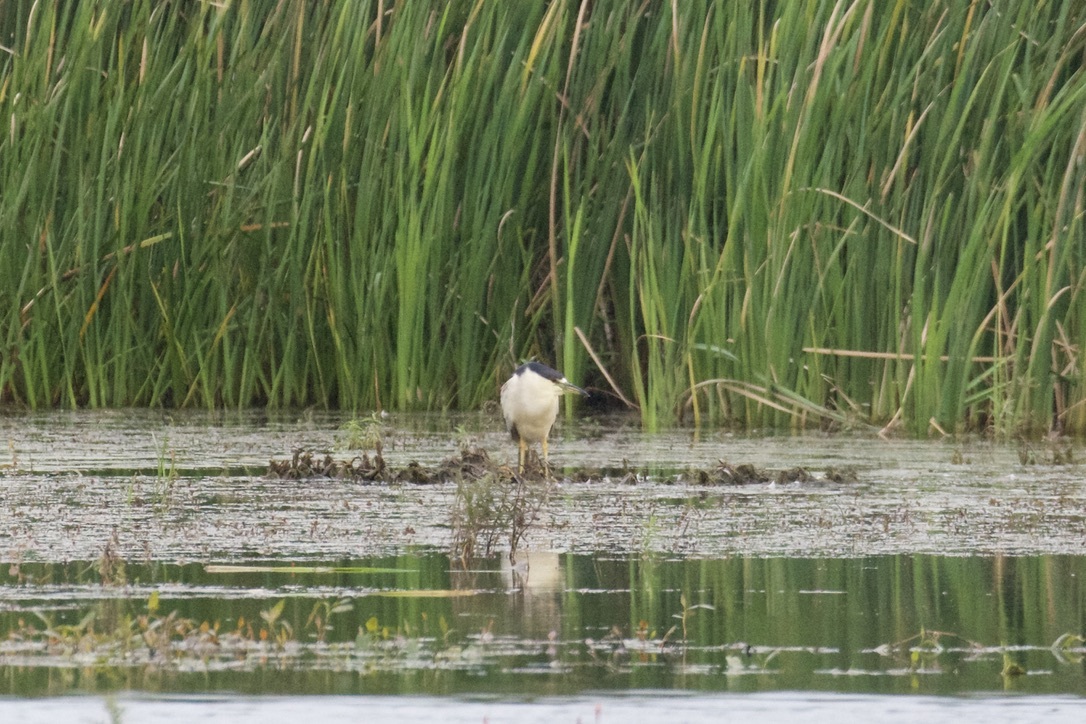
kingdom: Animalia
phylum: Chordata
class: Aves
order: Pelecaniformes
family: Ardeidae
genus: Nycticorax
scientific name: Nycticorax nycticorax
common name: Black-crowned night heron
